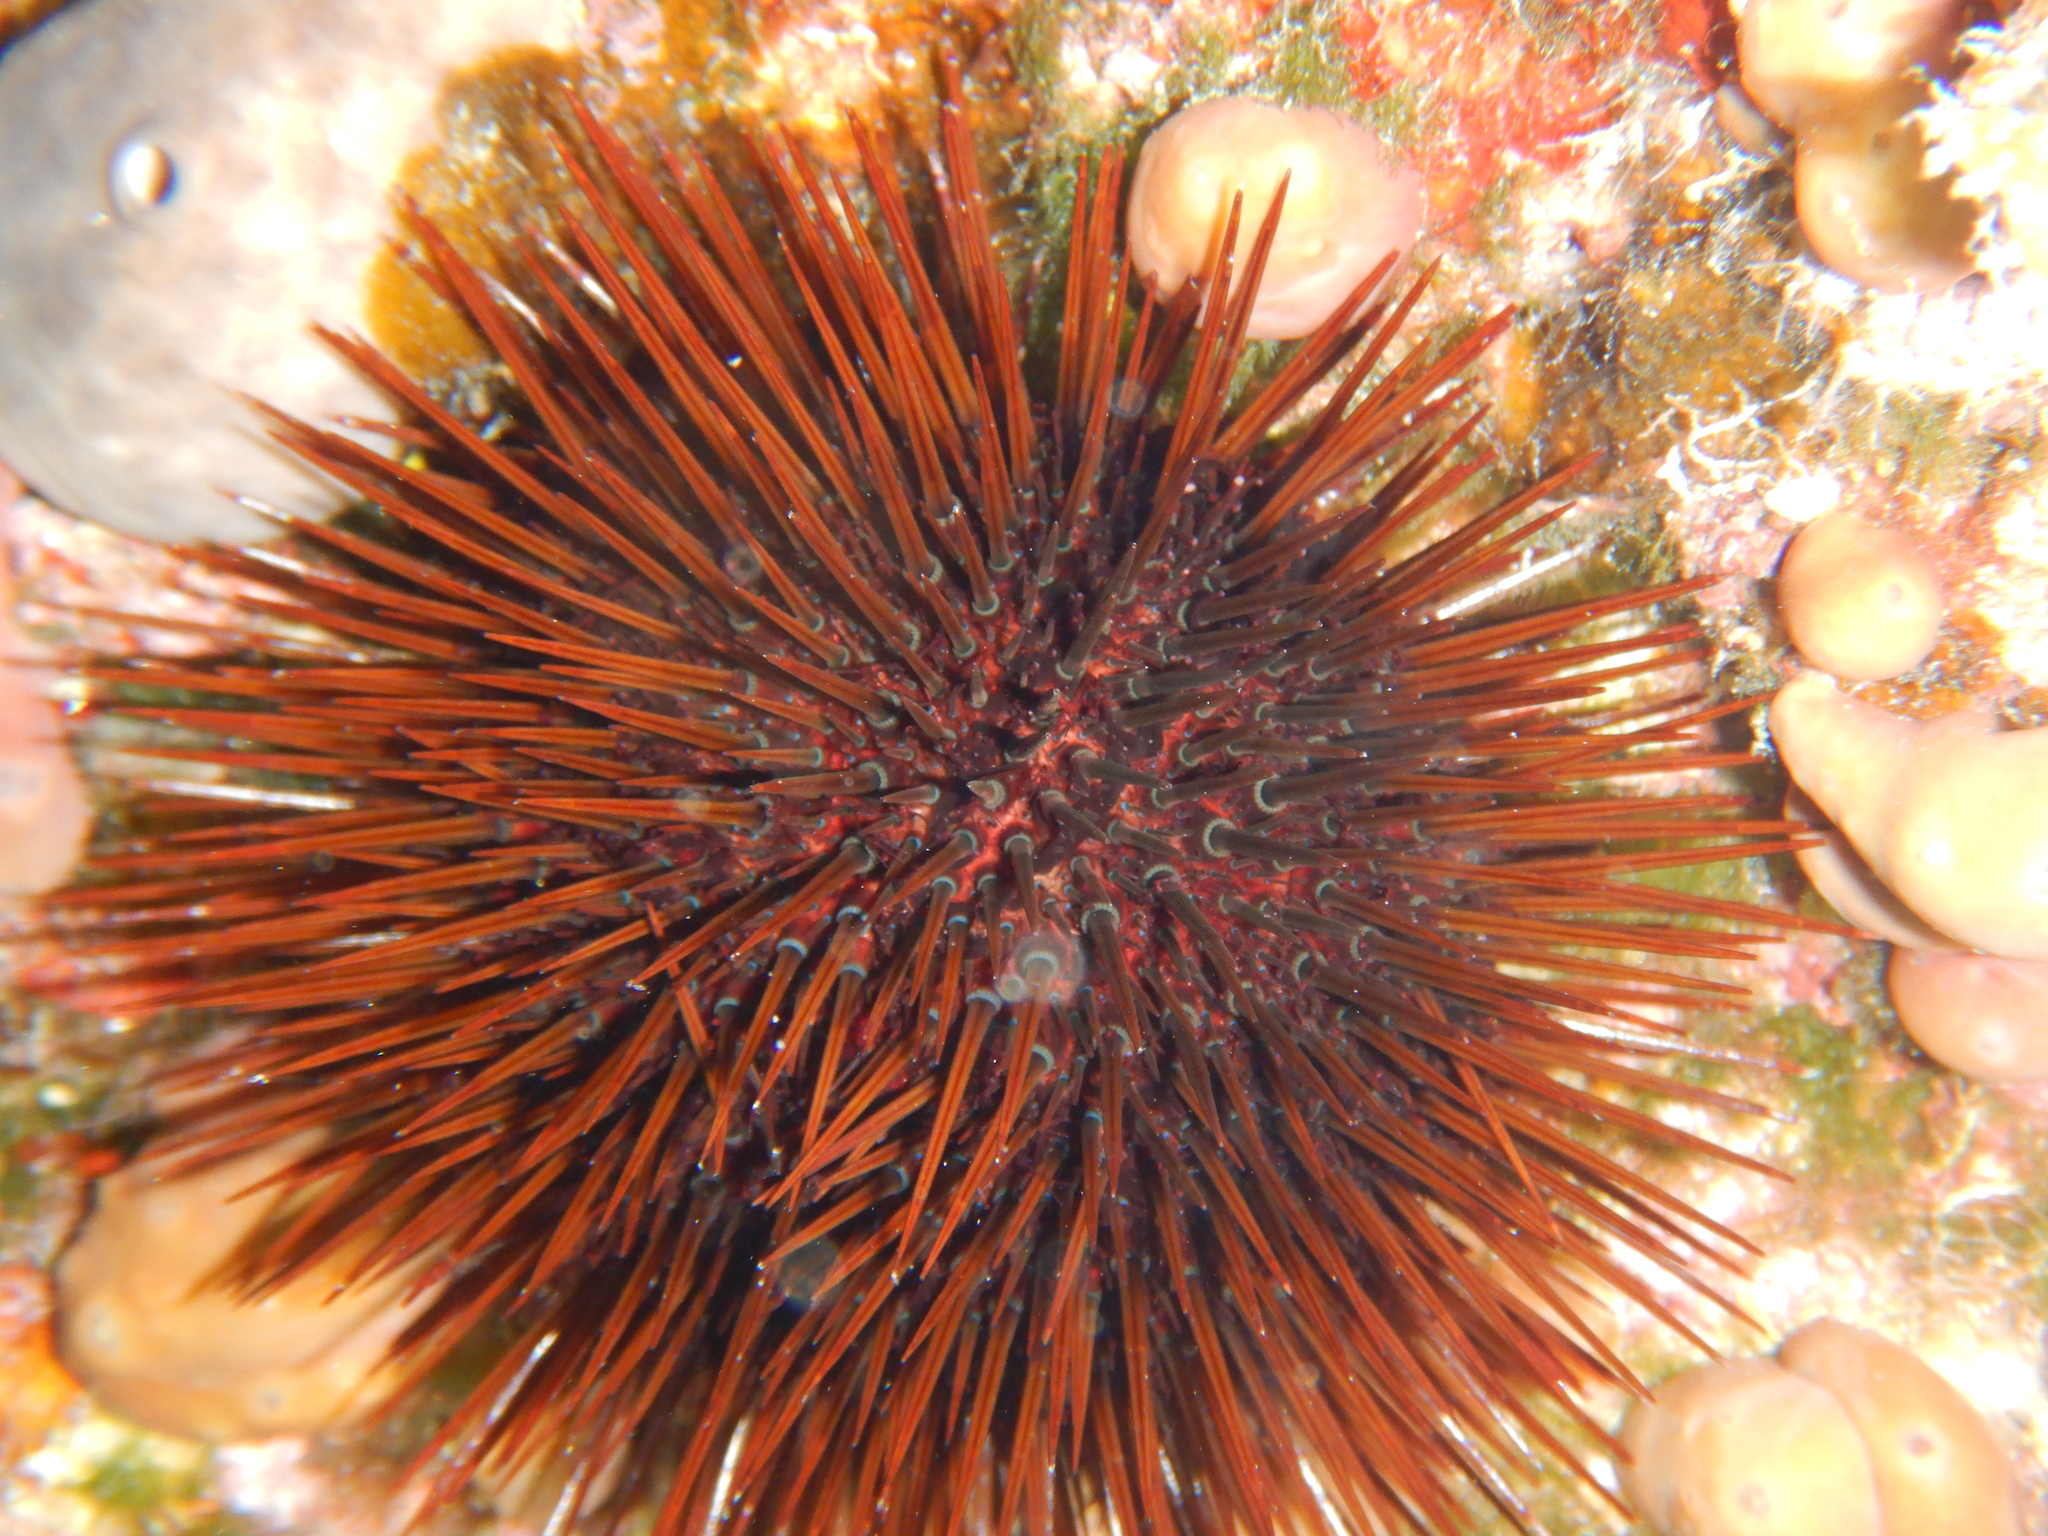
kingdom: Animalia
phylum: Echinodermata
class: Echinoidea
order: Camarodonta
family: Parechinidae
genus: Paracentrotus
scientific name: Paracentrotus lividus
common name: Purple sea urchin
